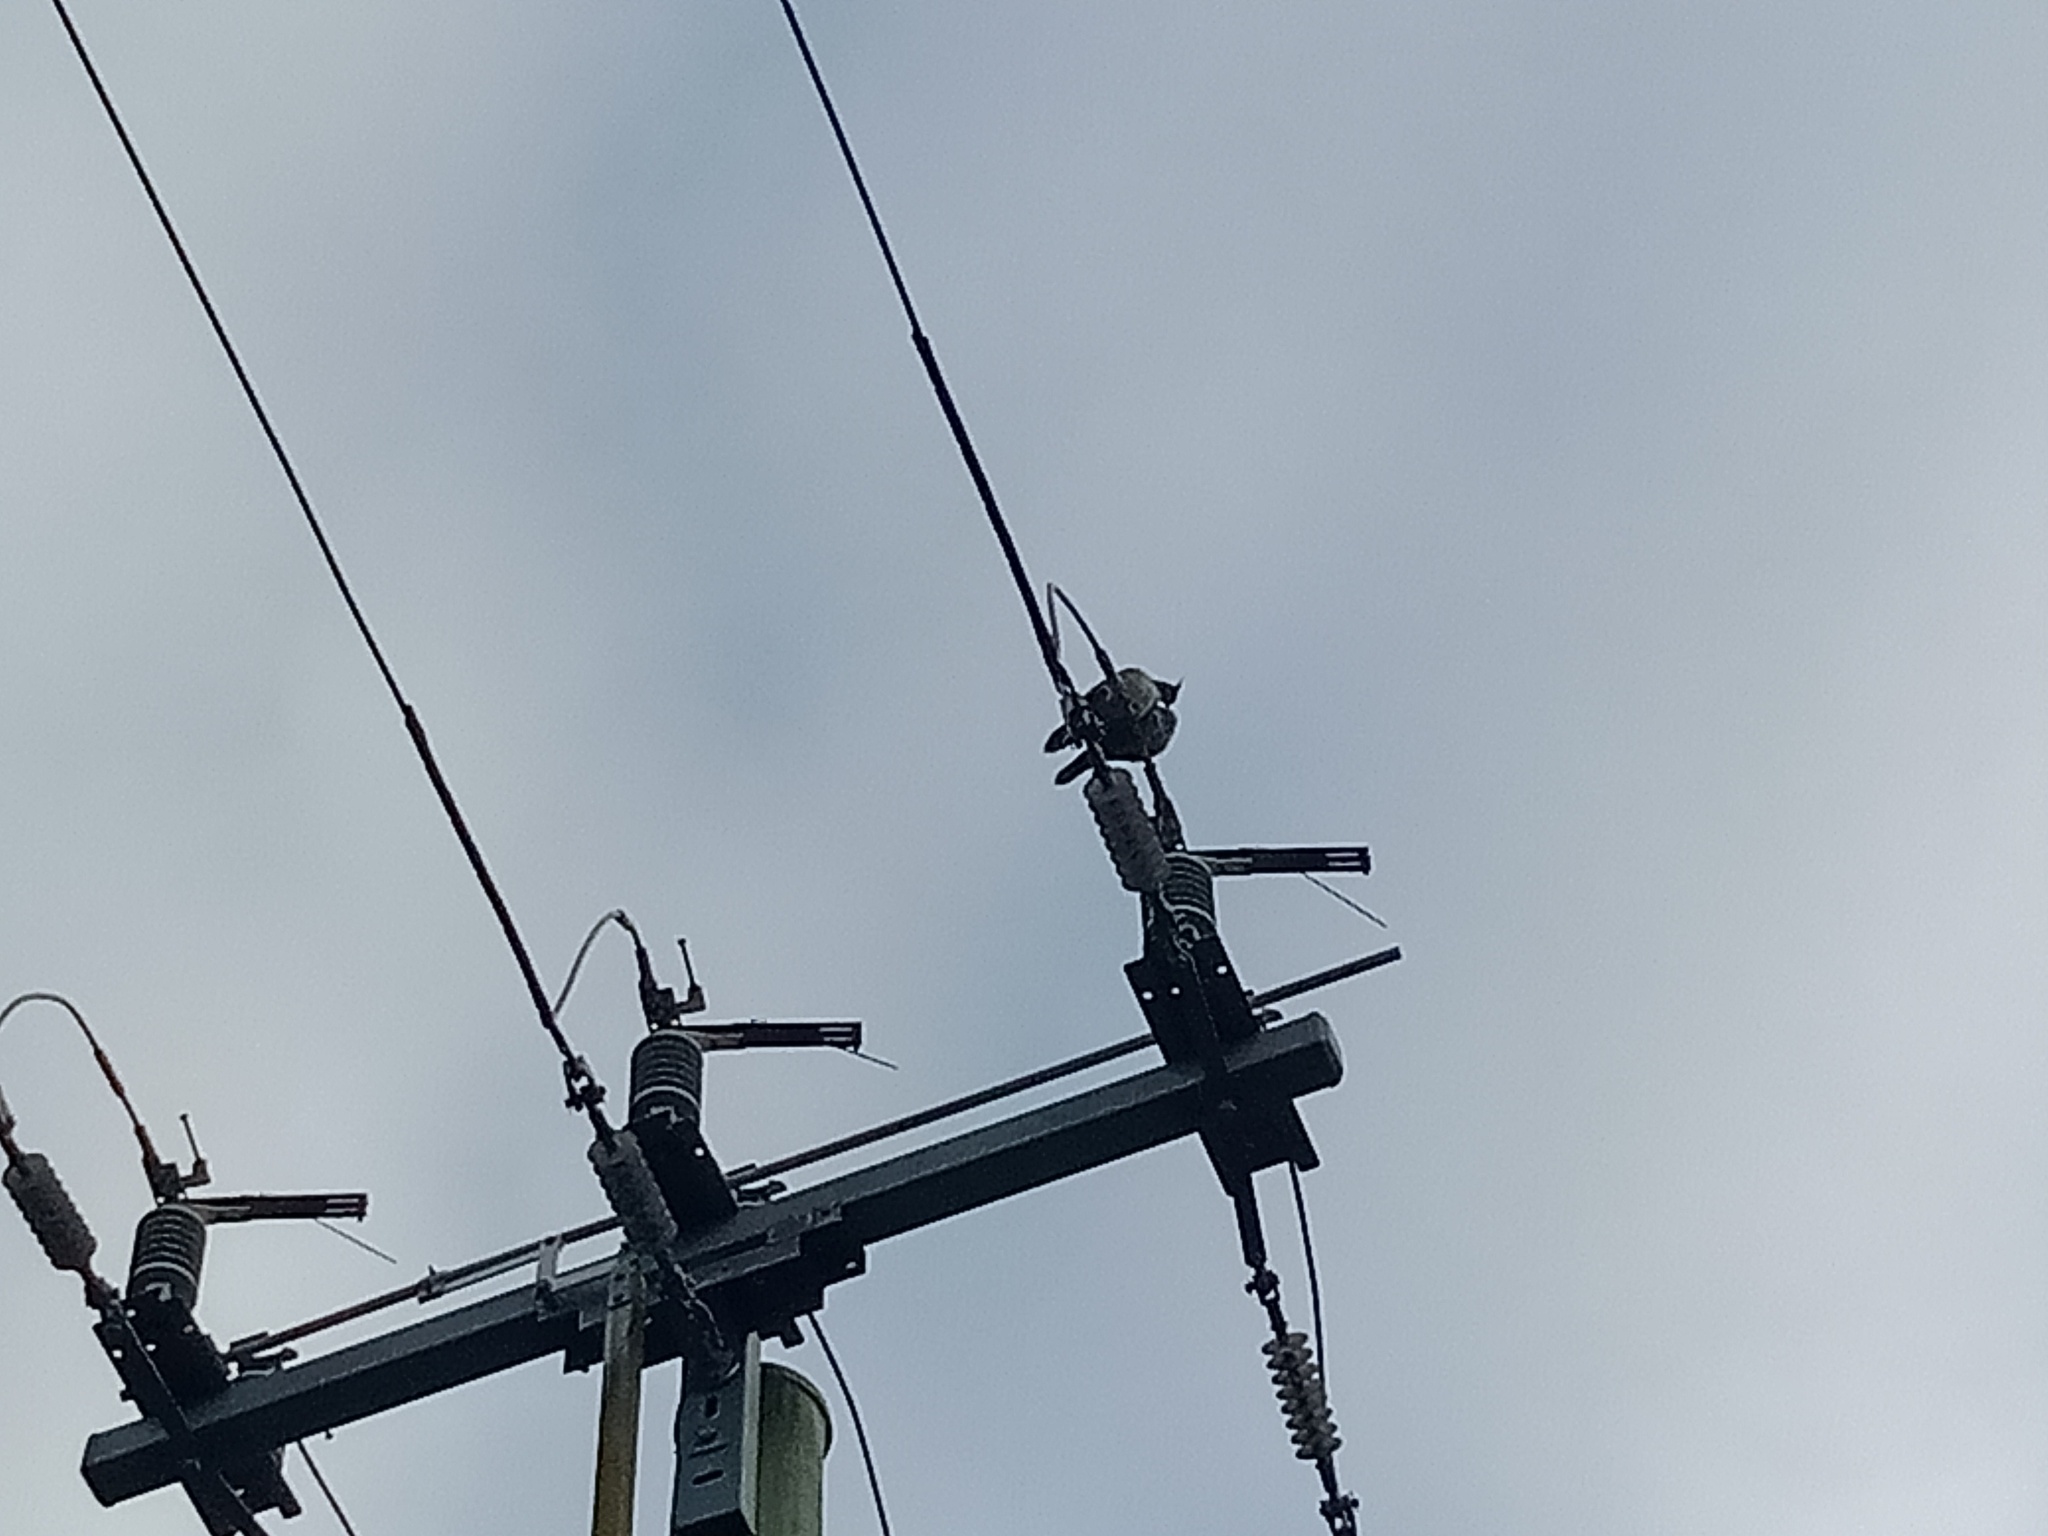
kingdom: Animalia
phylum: Chordata
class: Aves
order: Columbiformes
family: Columbidae
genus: Ocyphaps
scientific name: Ocyphaps lophotes
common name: Crested pigeon
